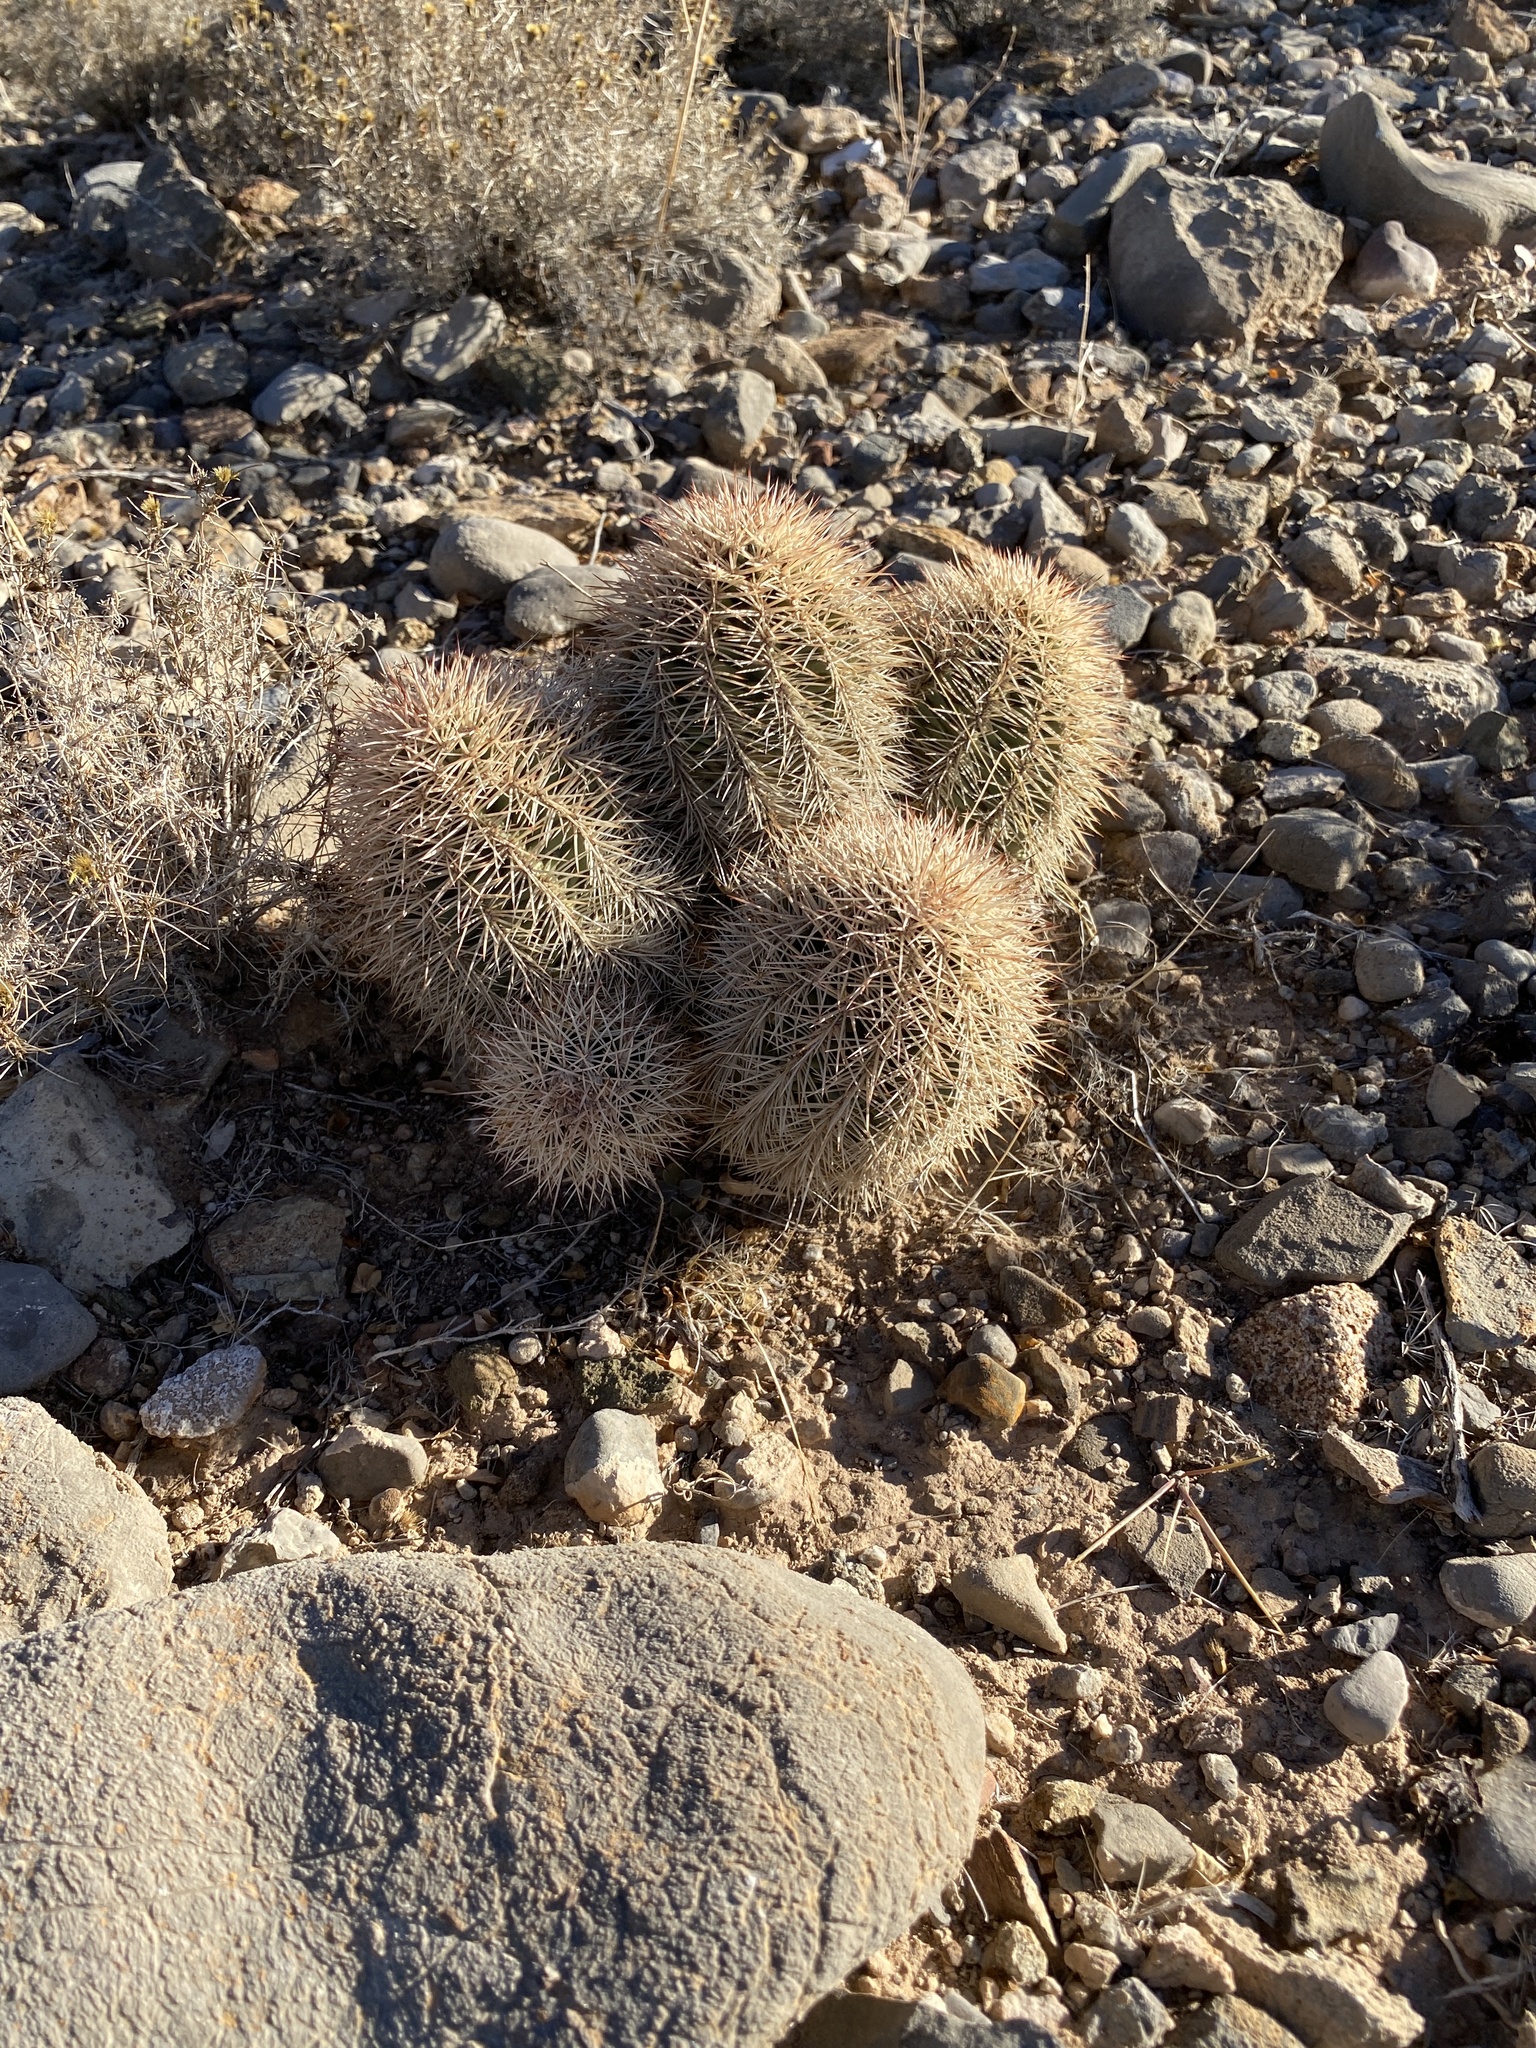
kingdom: Plantae
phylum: Tracheophyta
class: Magnoliopsida
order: Caryophyllales
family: Cactaceae
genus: Echinocereus
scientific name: Echinocereus roetteri
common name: Lloyd's hedgehog cactus
